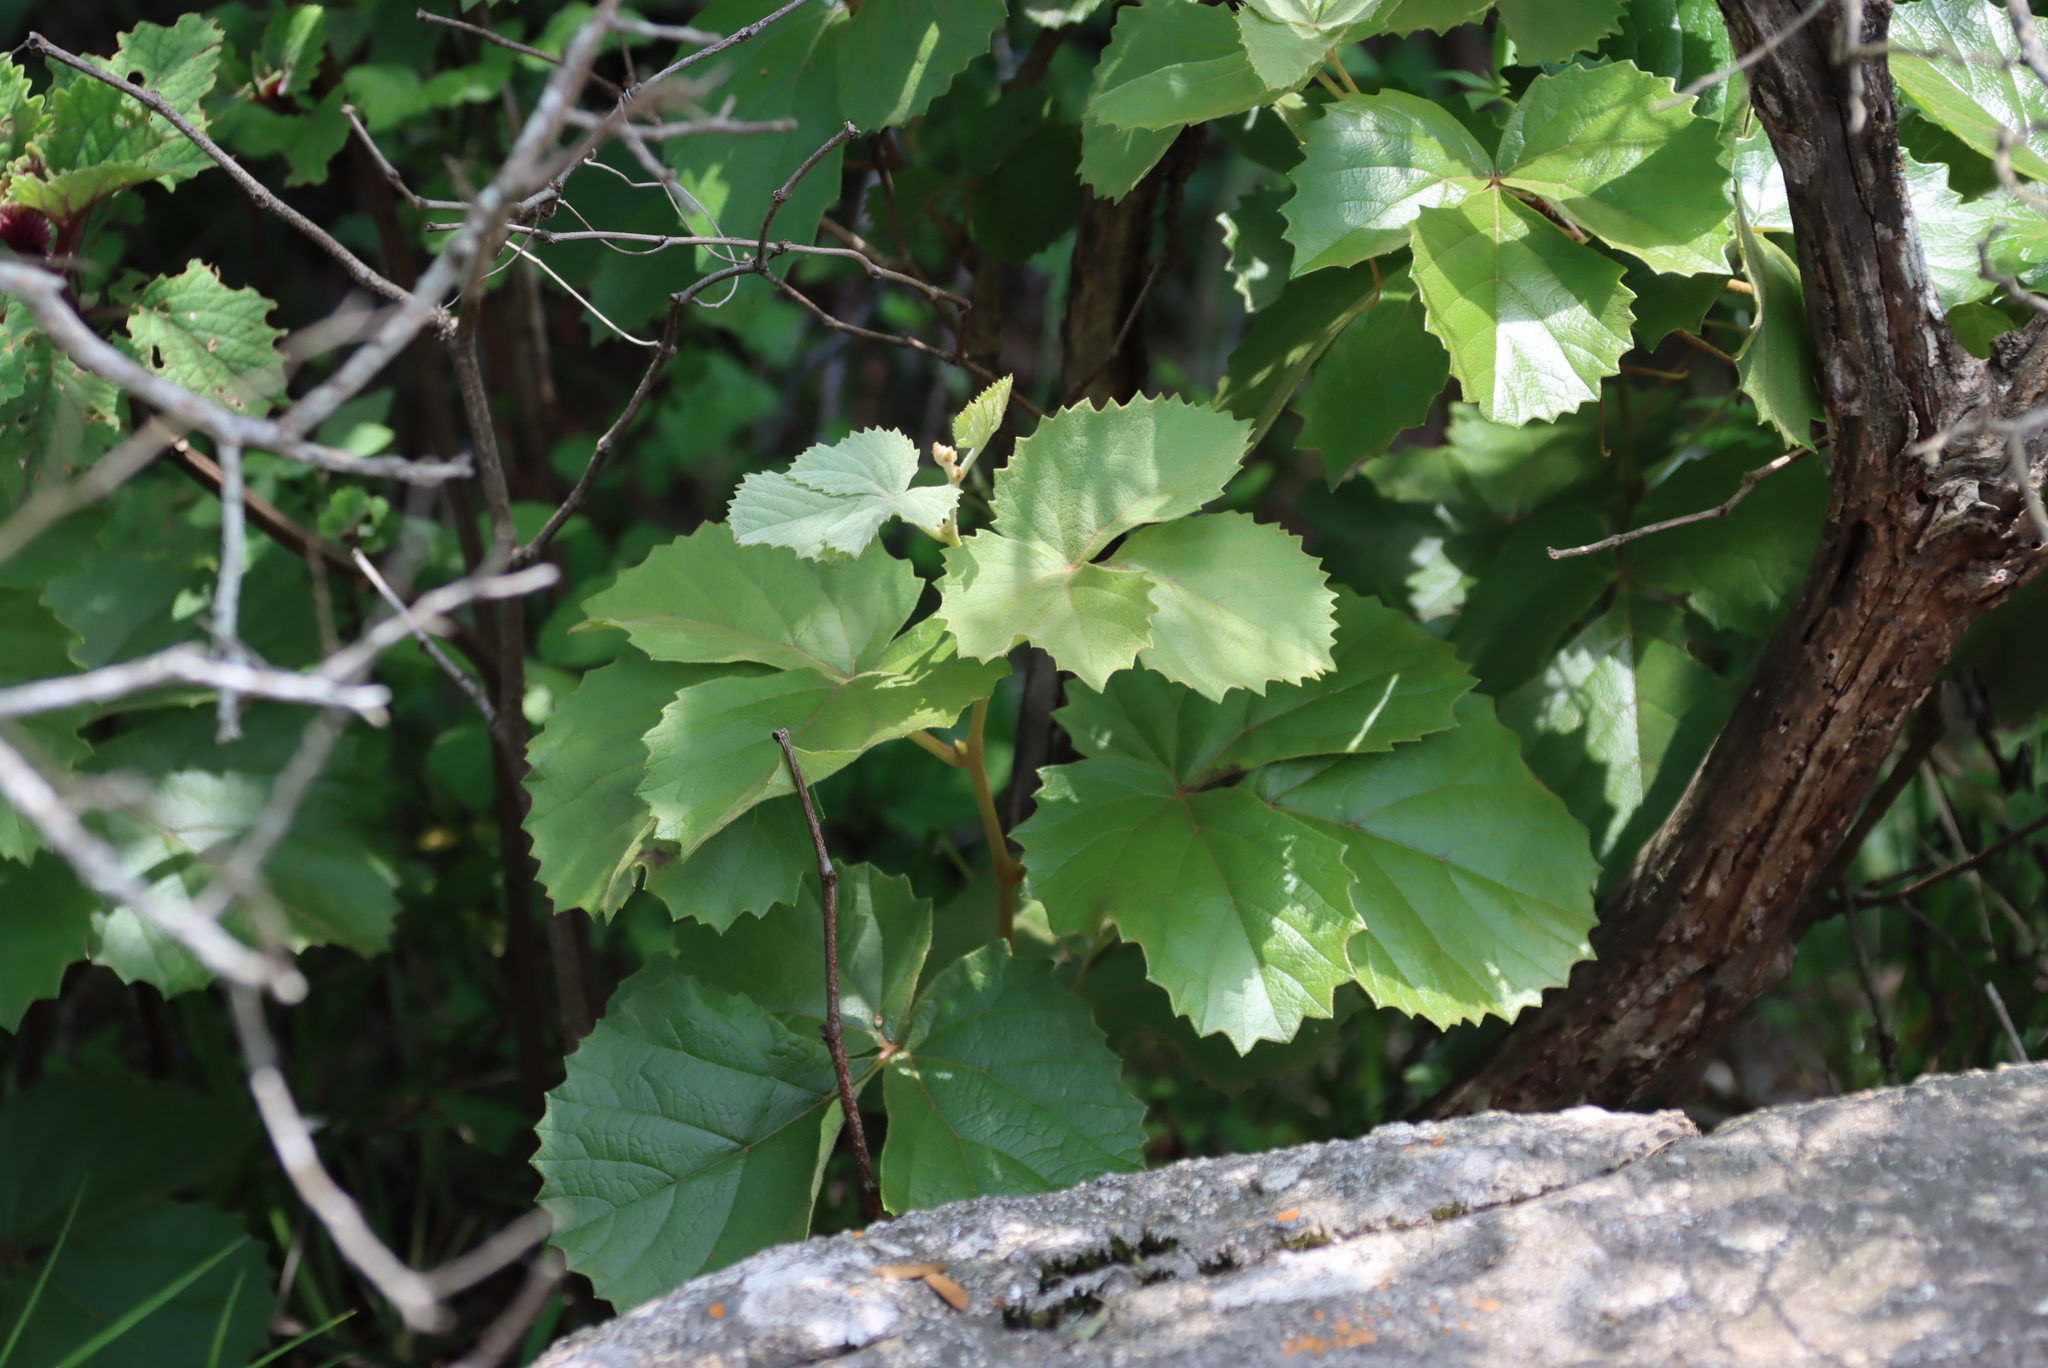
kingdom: Plantae
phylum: Tracheophyta
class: Magnoliopsida
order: Vitales
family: Vitaceae
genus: Rhoicissus
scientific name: Rhoicissus tridentata
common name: Common forest grape
